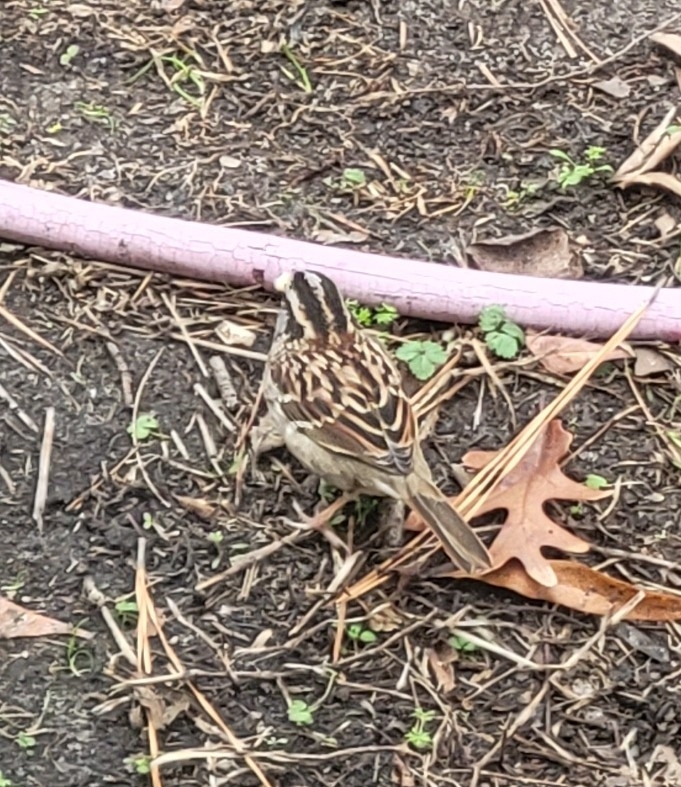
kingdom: Animalia
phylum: Chordata
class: Aves
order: Passeriformes
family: Passerellidae
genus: Zonotrichia
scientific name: Zonotrichia albicollis
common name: White-throated sparrow
